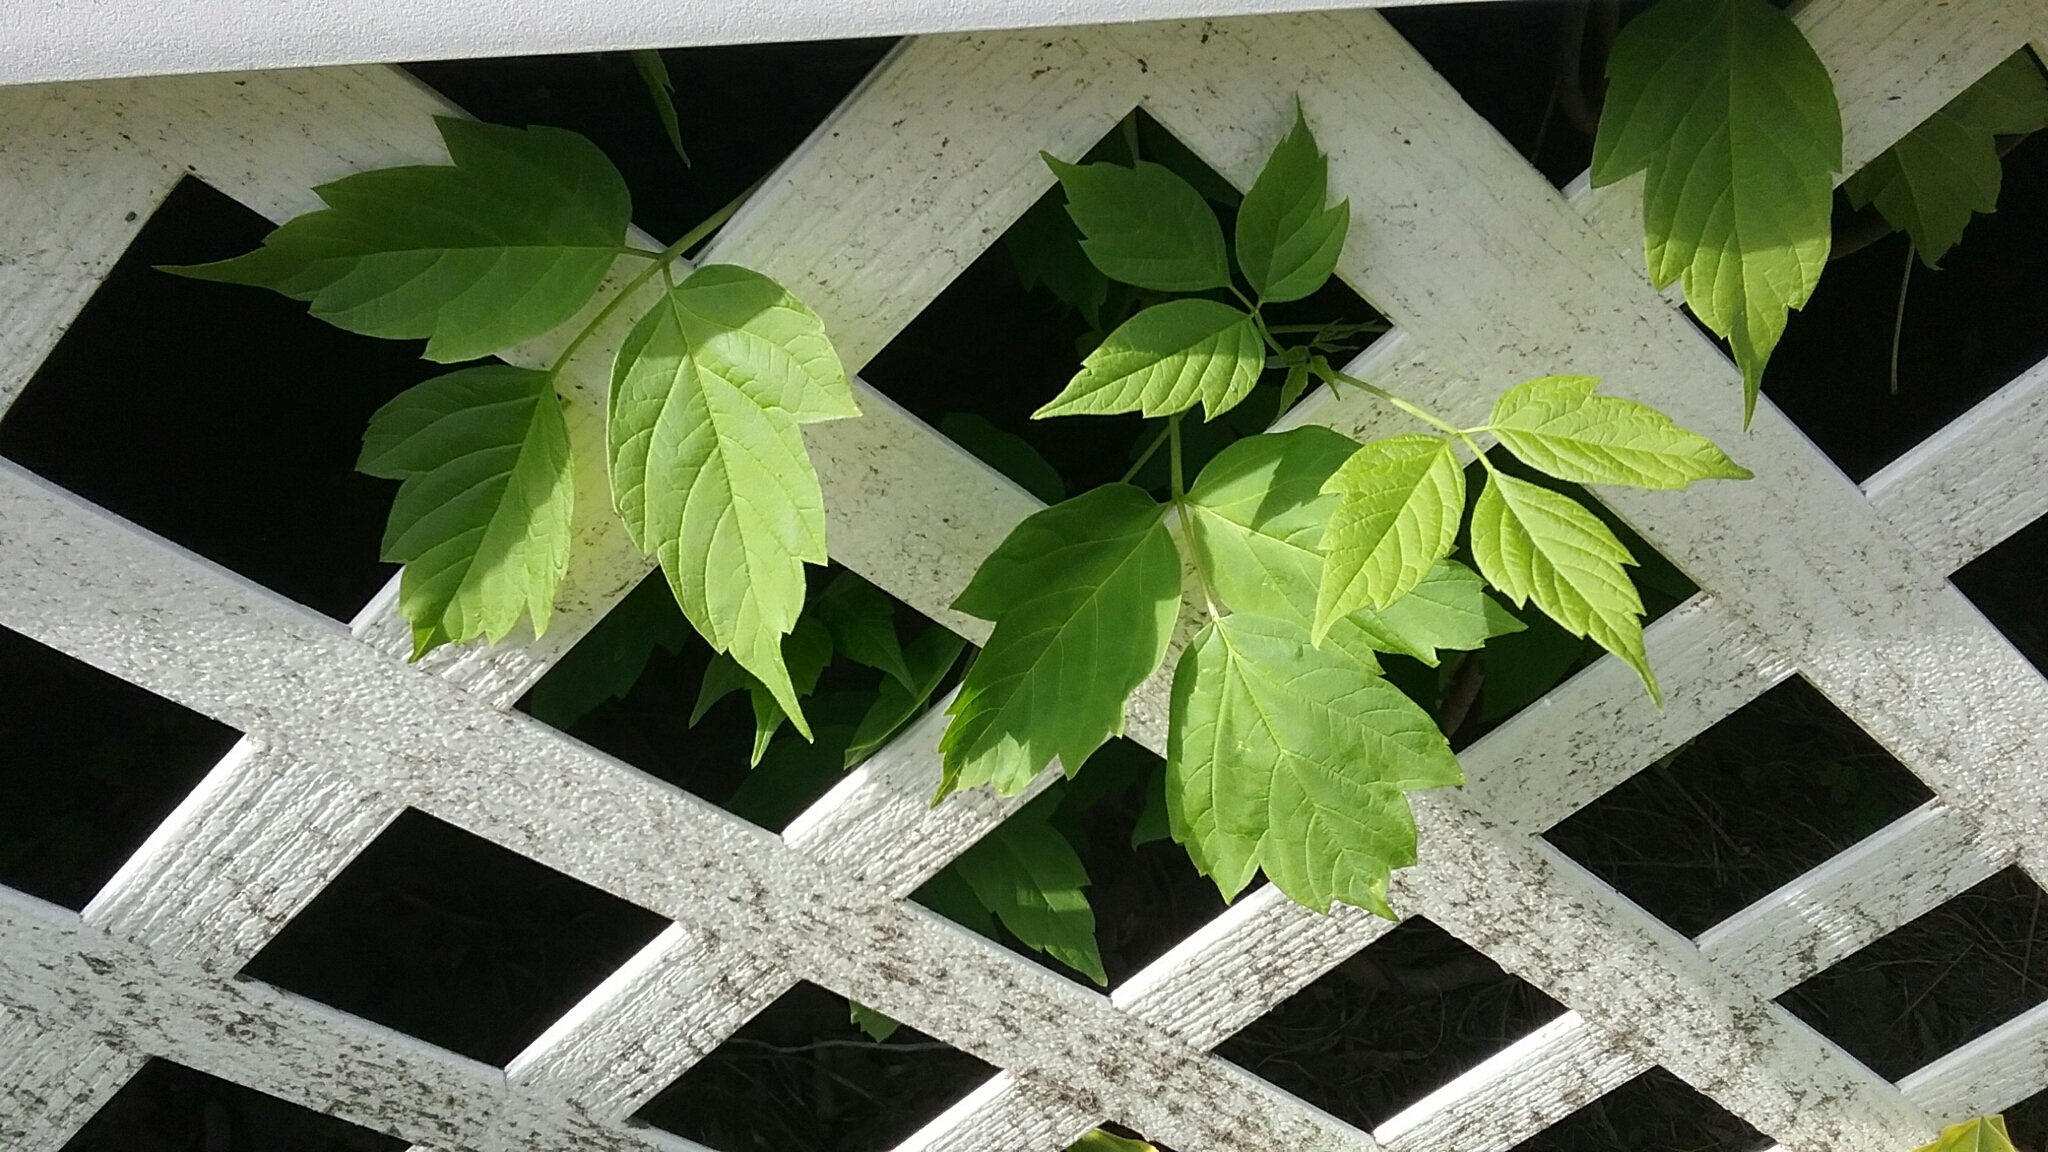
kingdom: Plantae
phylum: Tracheophyta
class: Magnoliopsida
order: Sapindales
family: Sapindaceae
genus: Acer
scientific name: Acer negundo
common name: Ashleaf maple
